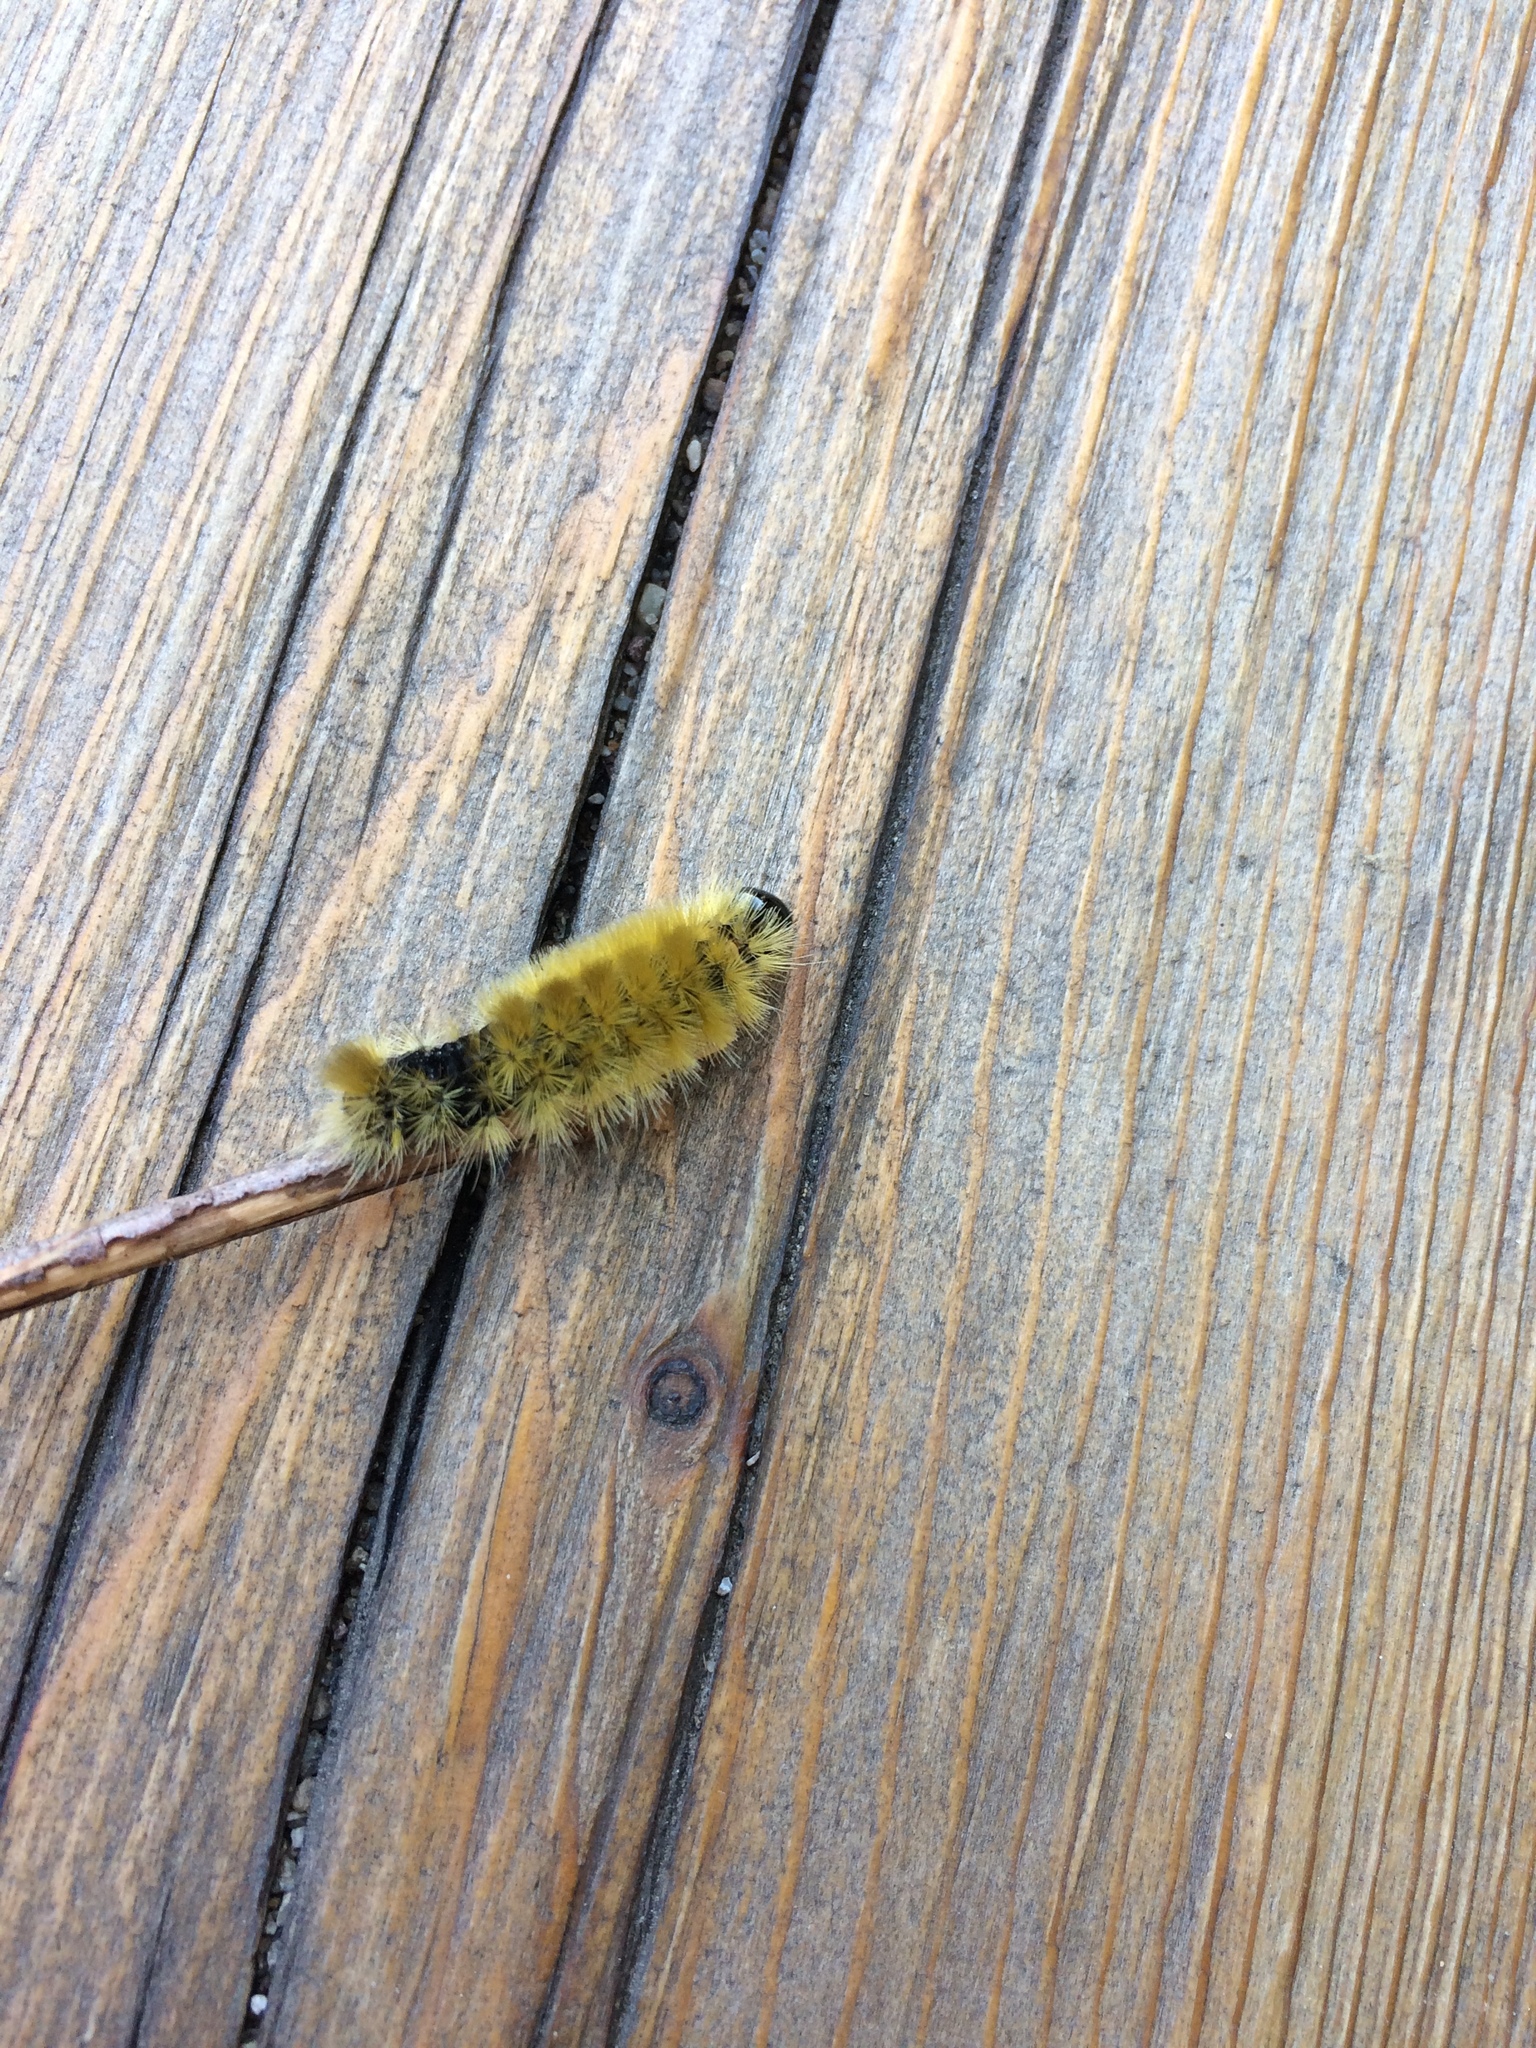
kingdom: Animalia
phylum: Arthropoda
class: Insecta
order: Lepidoptera
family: Erebidae
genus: Halysidota
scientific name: Halysidota tessellaris
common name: Banded tussock moth
